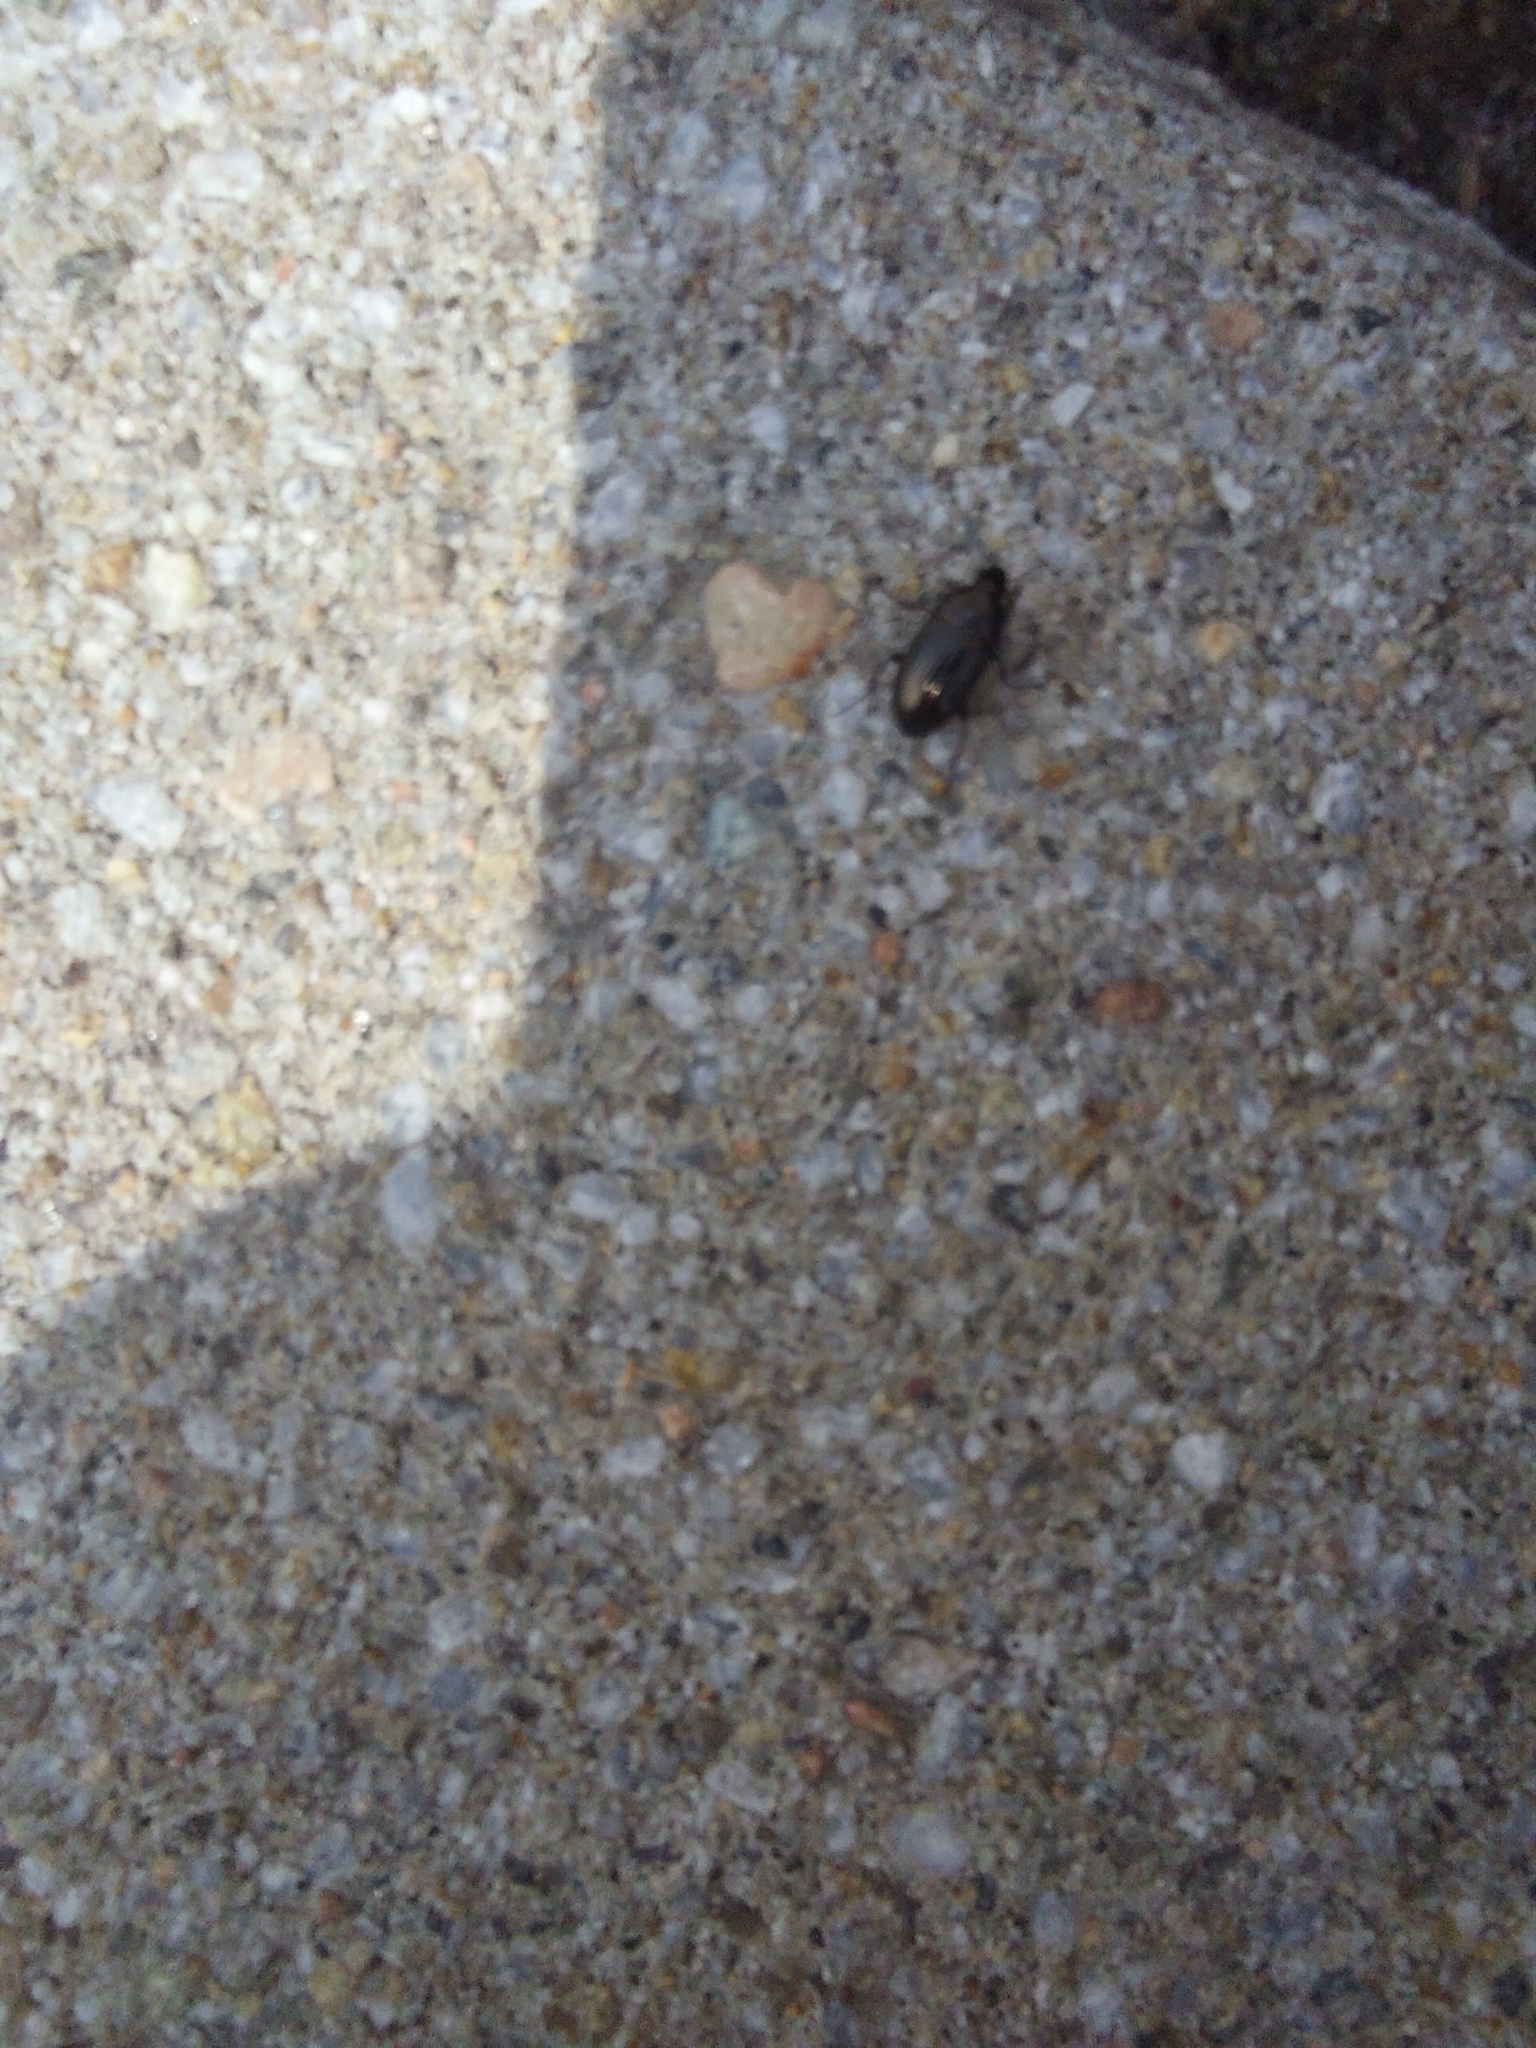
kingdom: Animalia
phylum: Arthropoda
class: Insecta
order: Coleoptera
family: Carabidae
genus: Amara
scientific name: Amara aenea
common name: Common sun beetle
